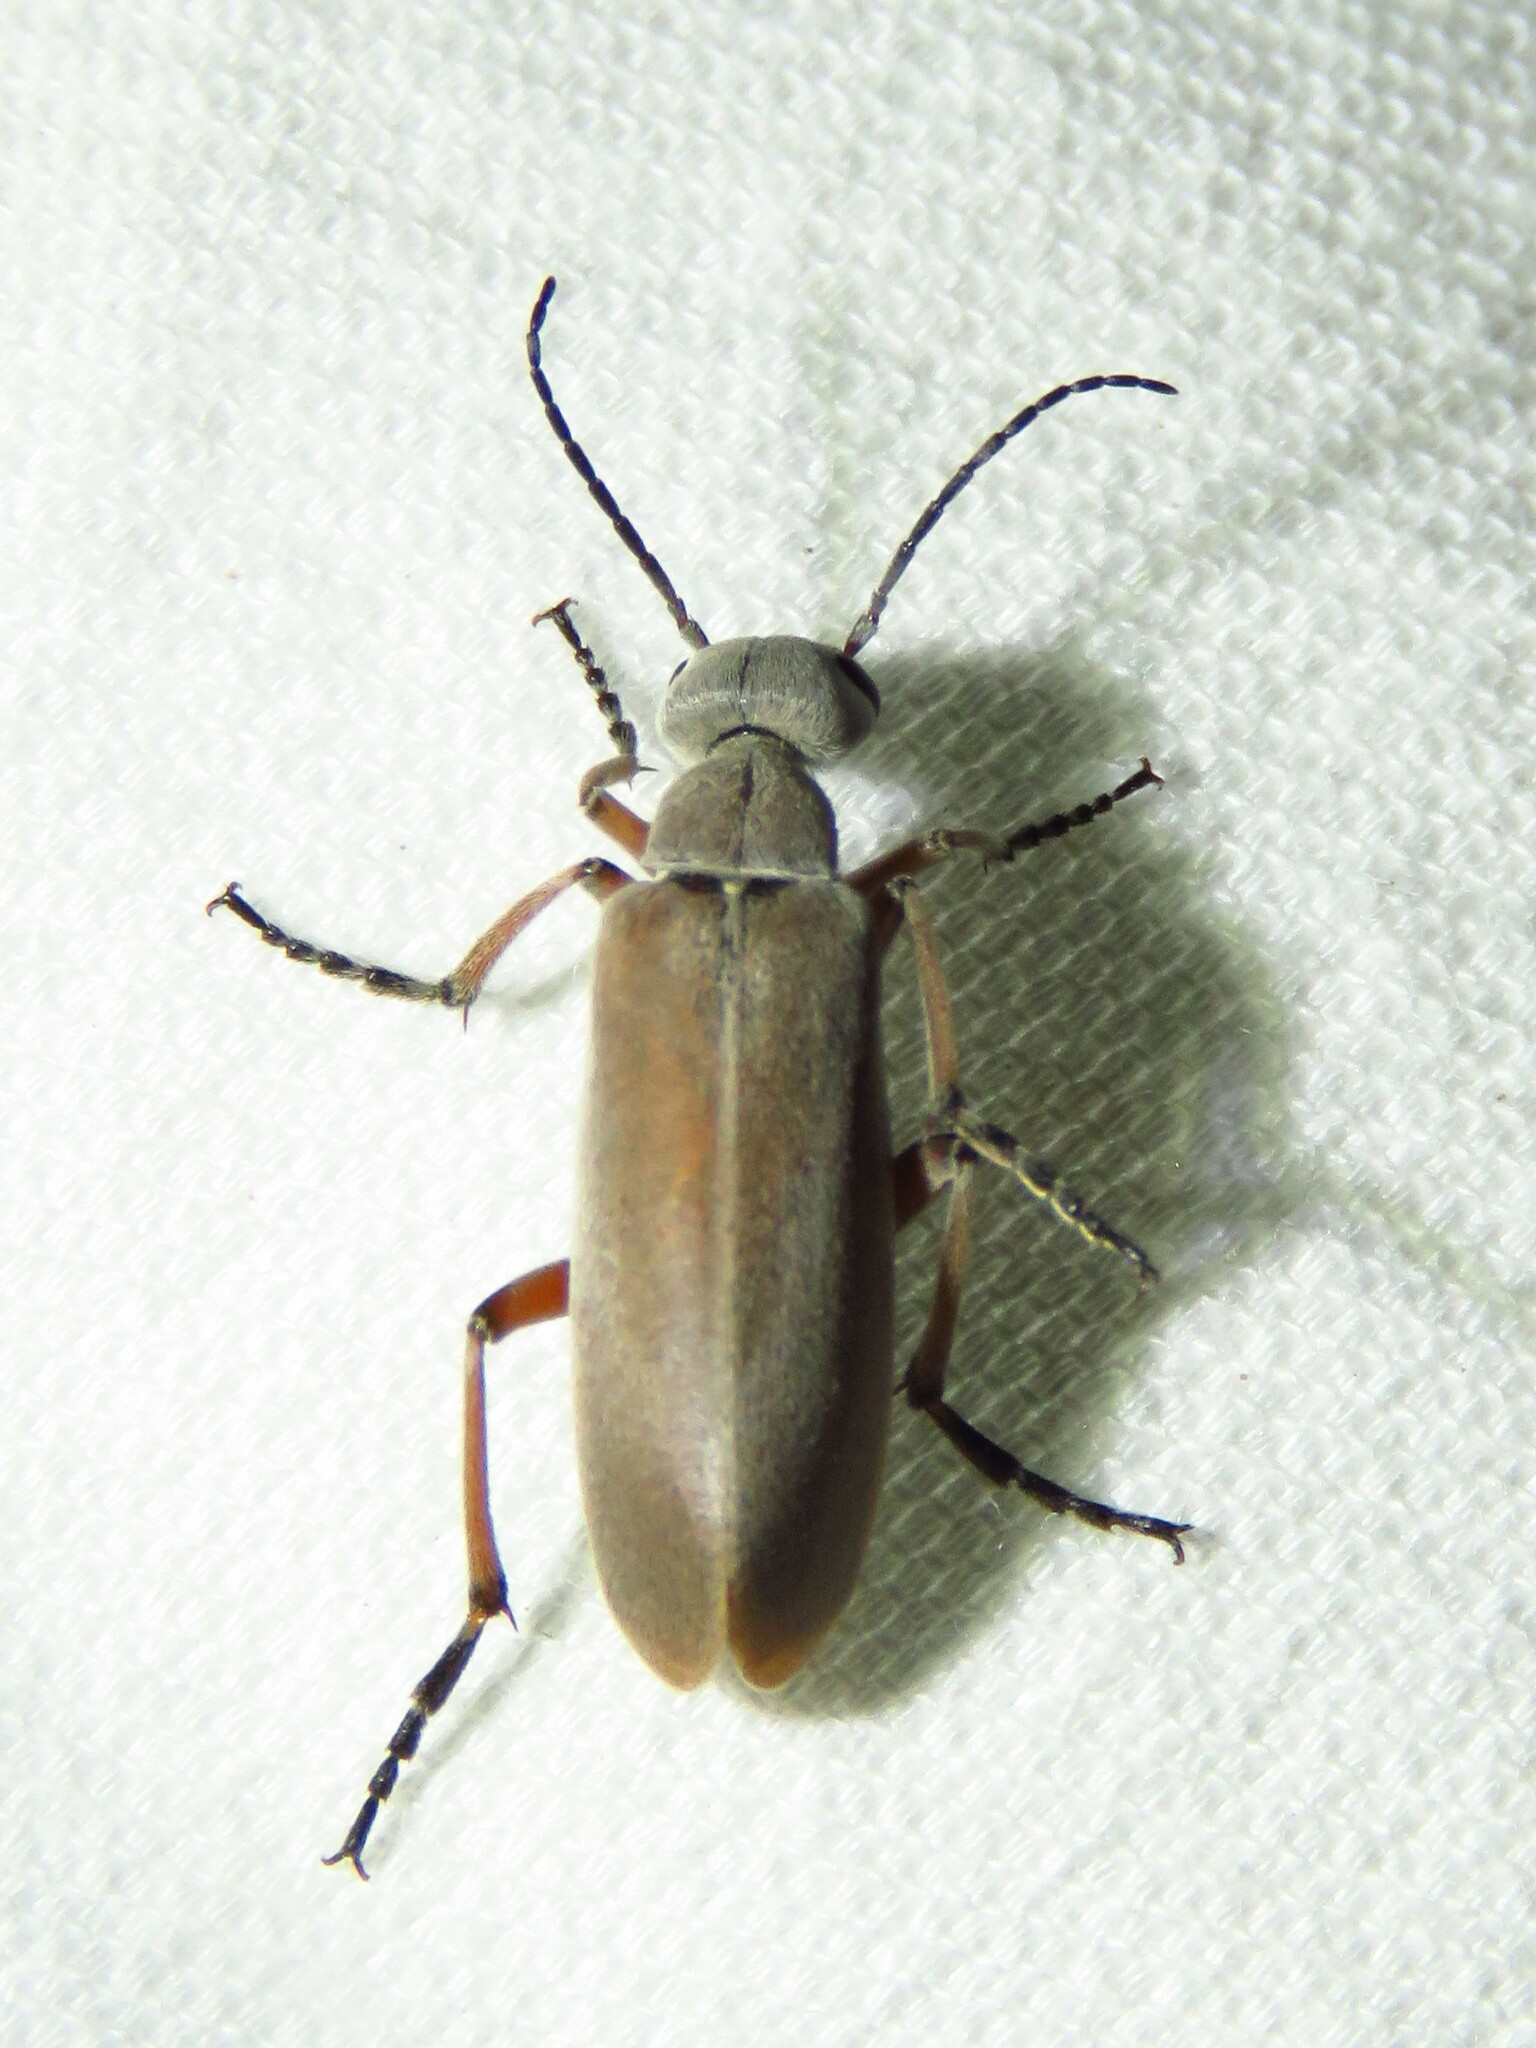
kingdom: Animalia
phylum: Arthropoda
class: Insecta
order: Coleoptera
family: Meloidae
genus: Epicauta
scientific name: Epicauta nigritarsis
